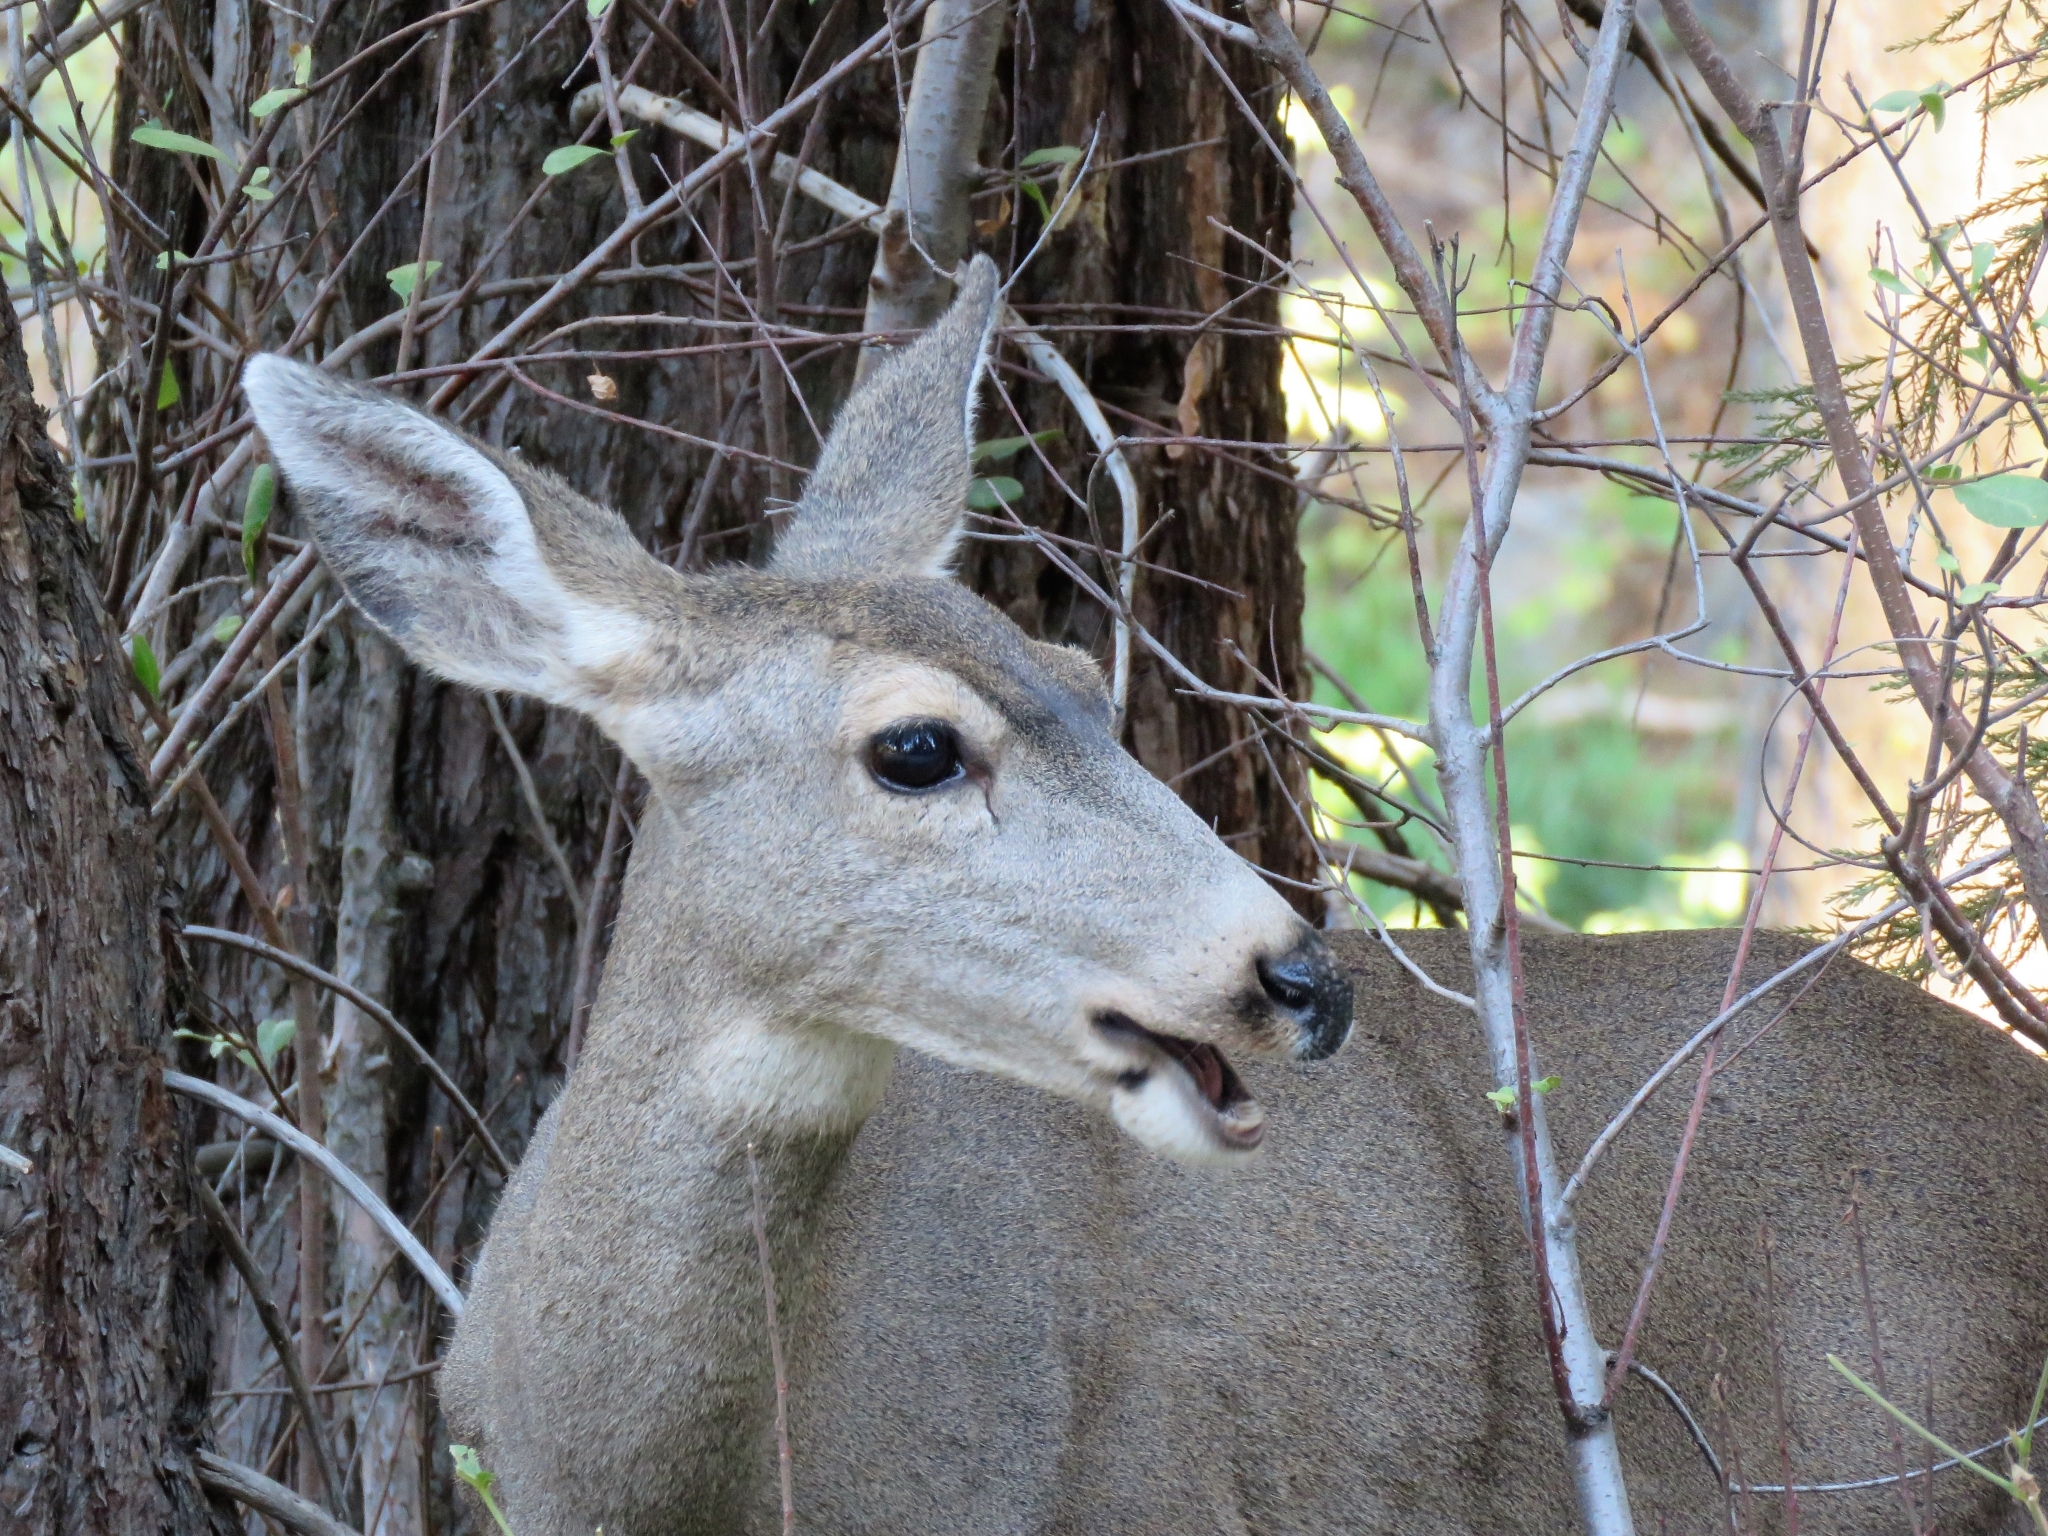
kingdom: Animalia
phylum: Chordata
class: Mammalia
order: Artiodactyla
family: Cervidae
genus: Odocoileus
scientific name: Odocoileus hemionus
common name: Mule deer
